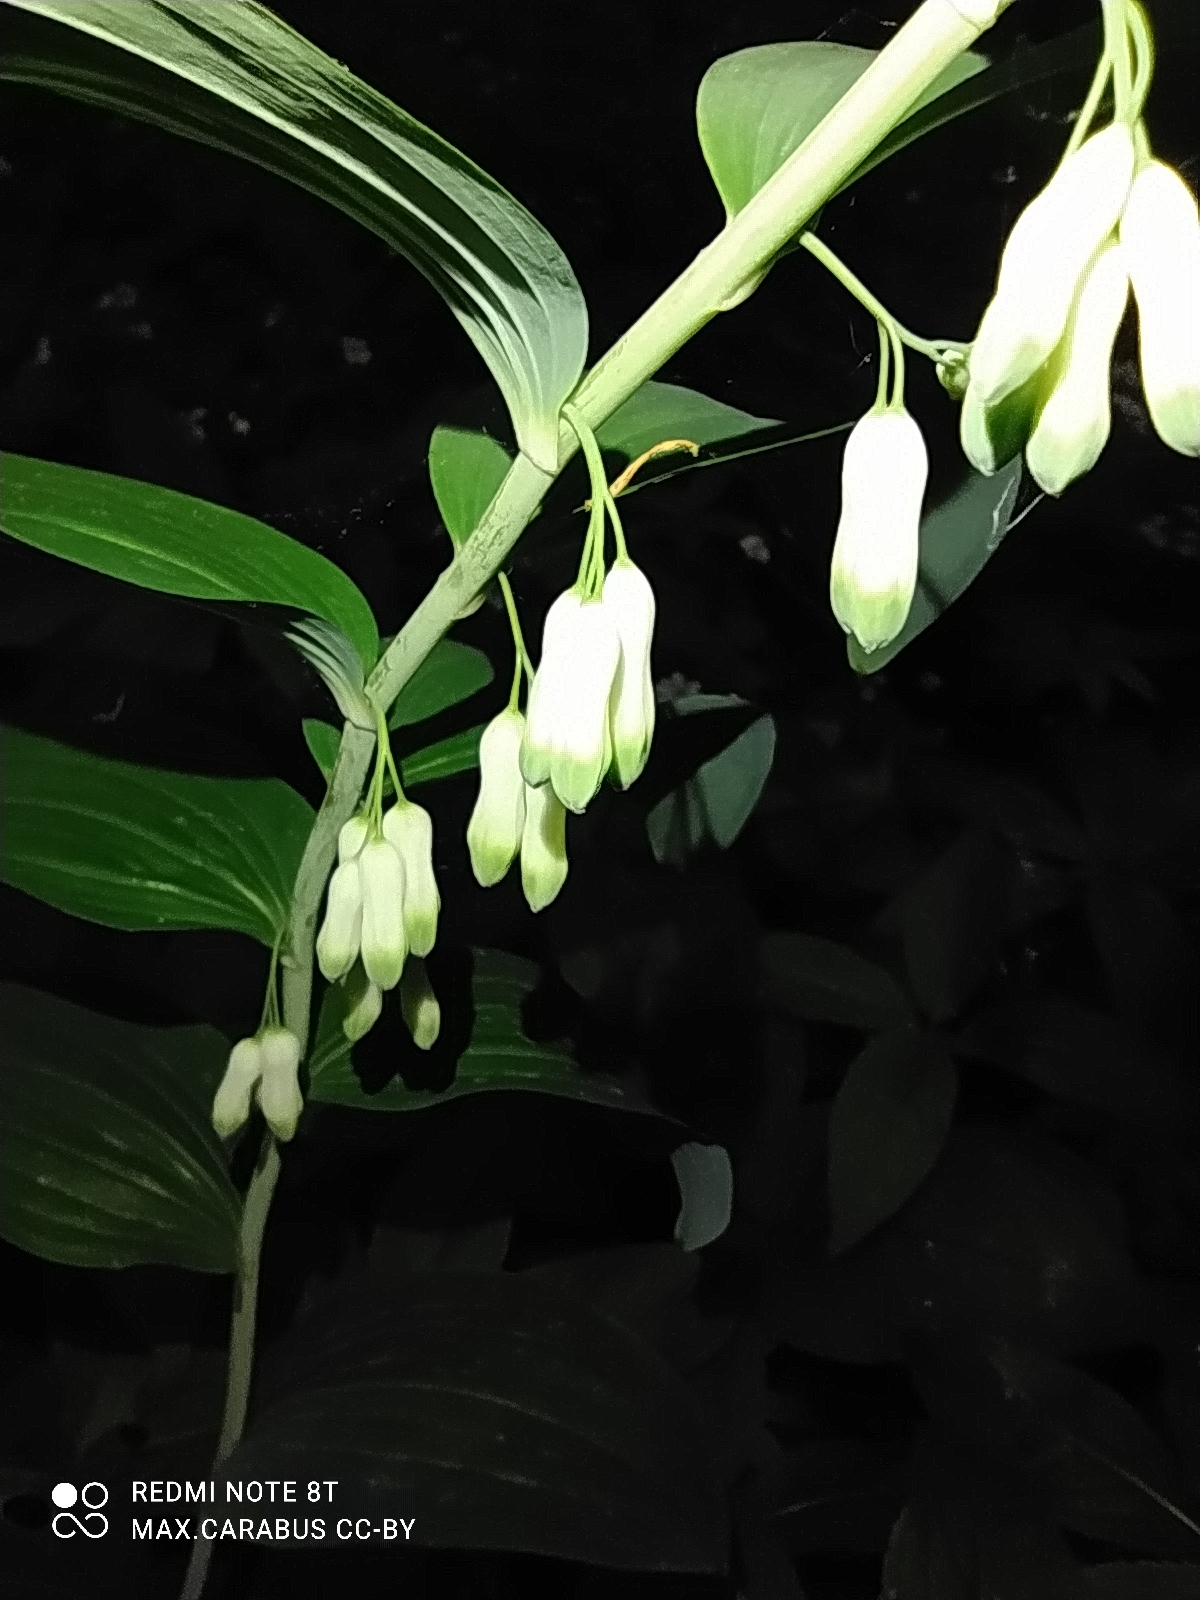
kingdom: Plantae
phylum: Tracheophyta
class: Liliopsida
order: Asparagales
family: Asparagaceae
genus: Polygonatum
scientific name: Polygonatum multiflorum
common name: Solomon's-seal
